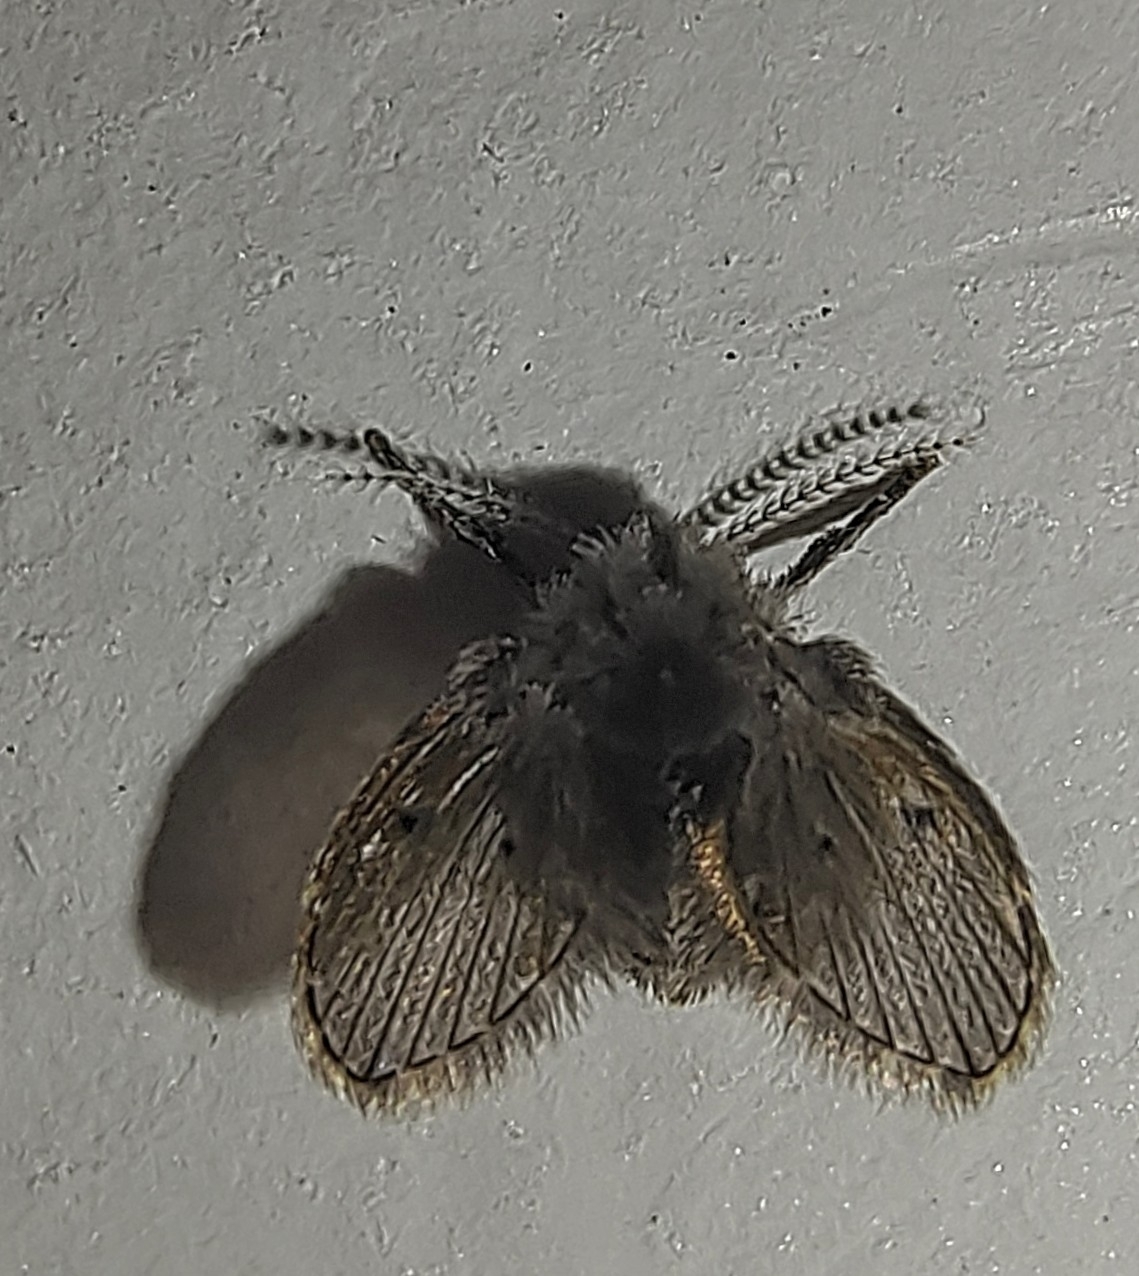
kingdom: Animalia
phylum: Arthropoda
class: Insecta
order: Diptera
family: Psychodidae
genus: Clogmia
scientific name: Clogmia albipunctatus
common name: White-spotted moth fly
